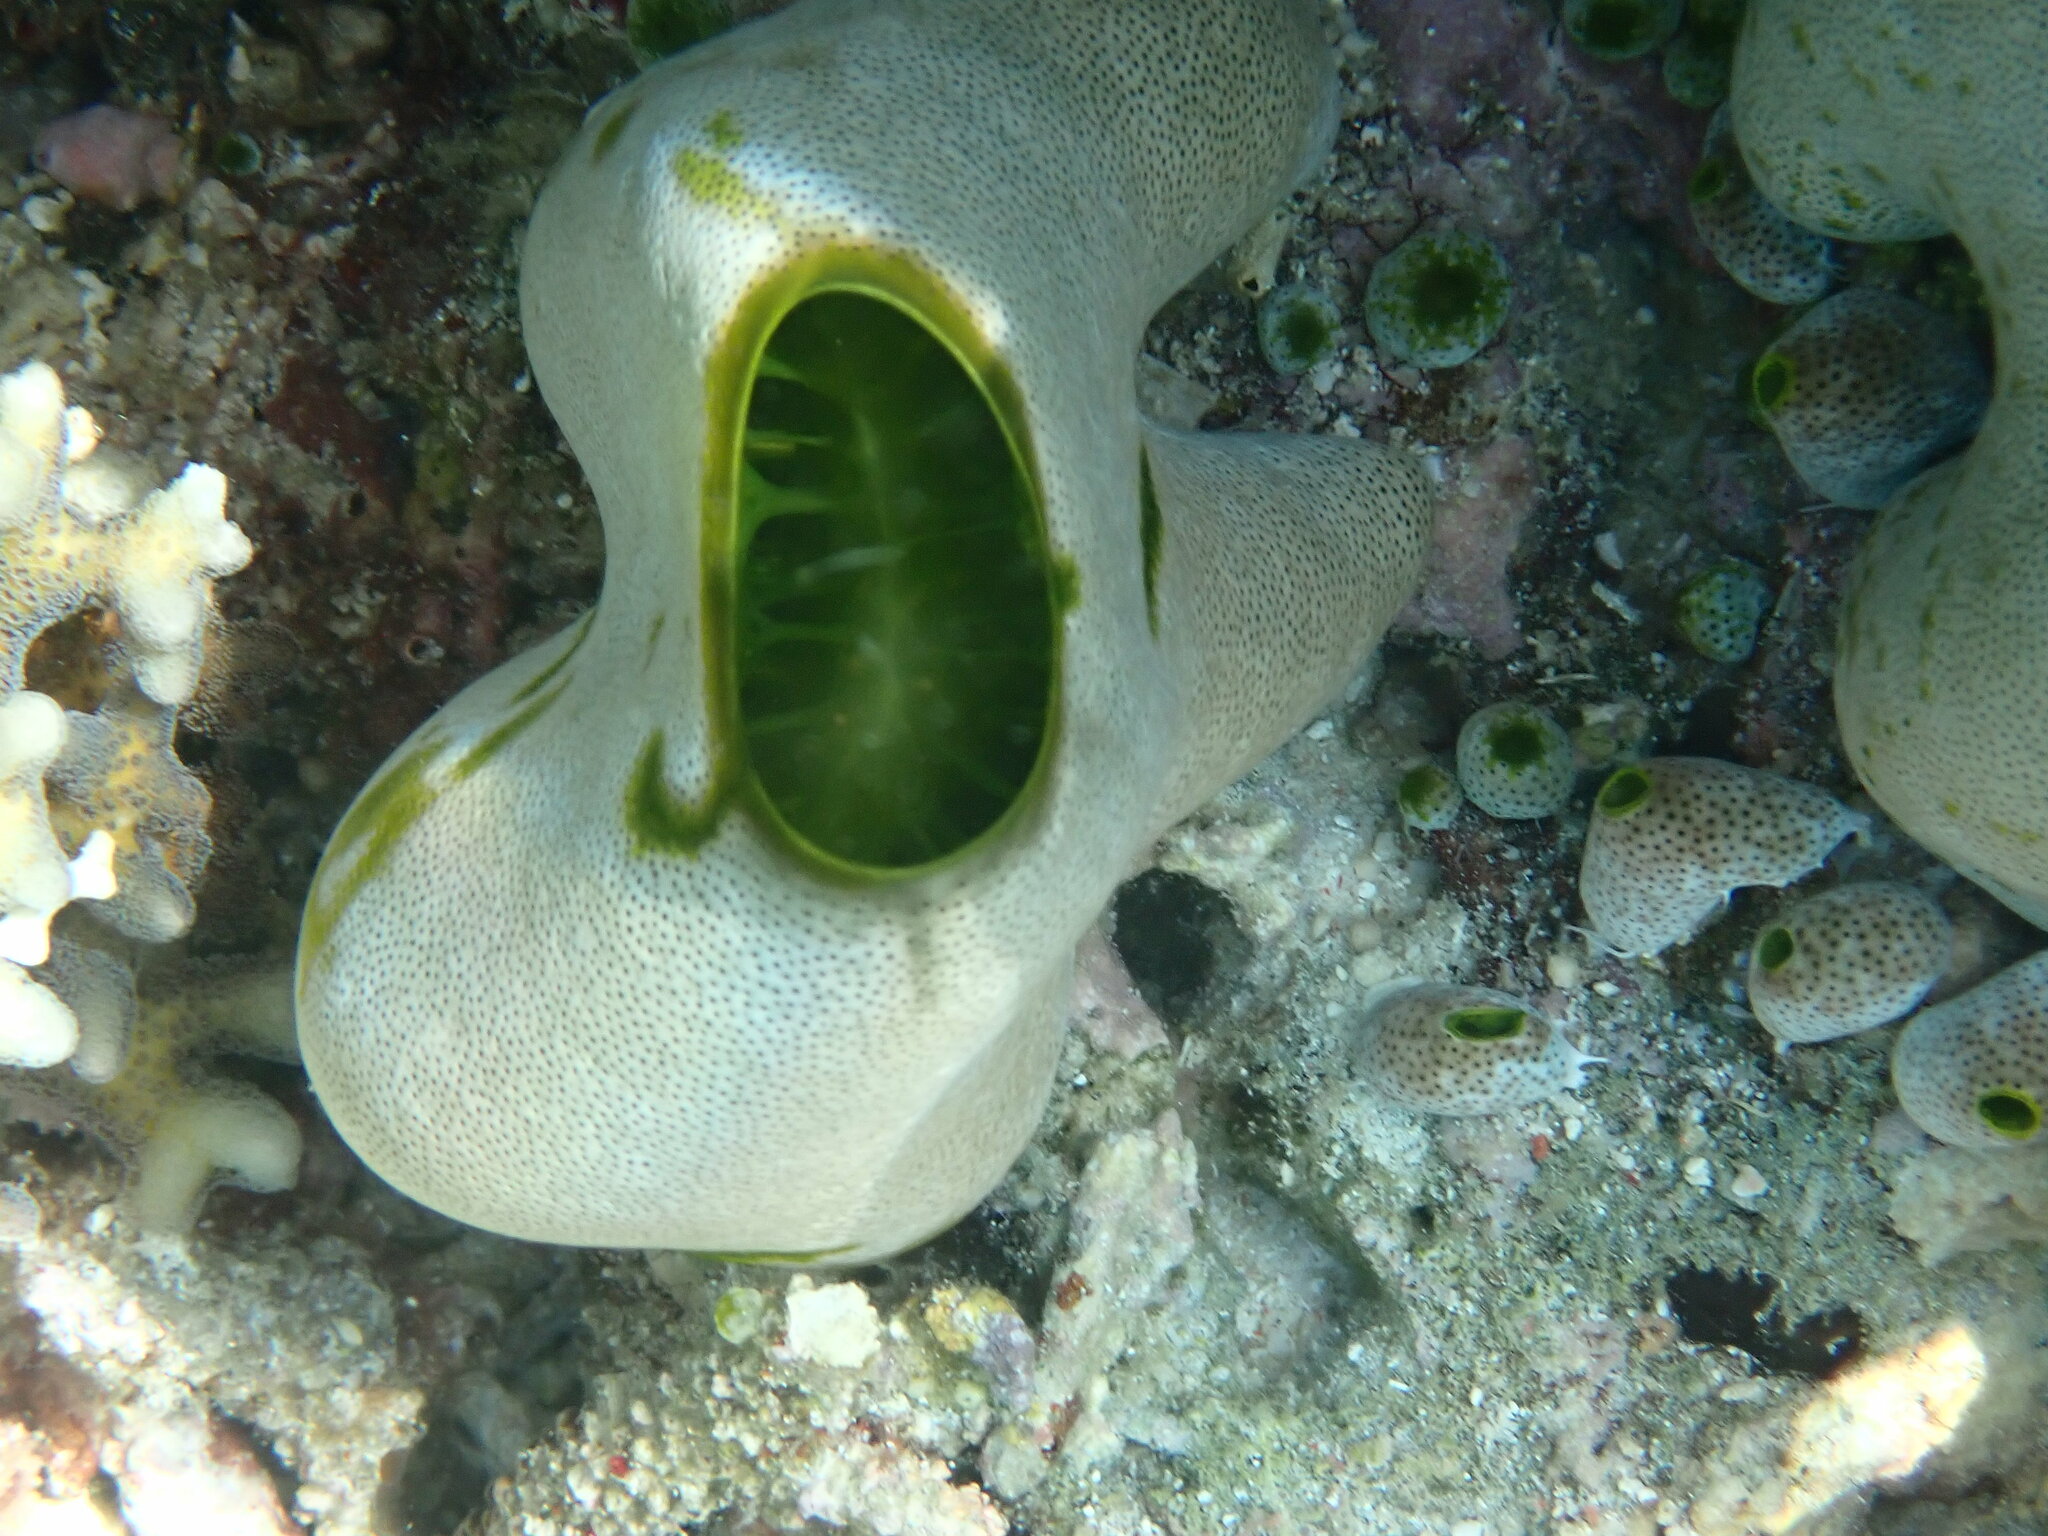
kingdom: Animalia
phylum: Chordata
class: Ascidiacea
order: Aplousobranchia
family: Didemnidae
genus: Didemnum
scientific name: Didemnum molle
